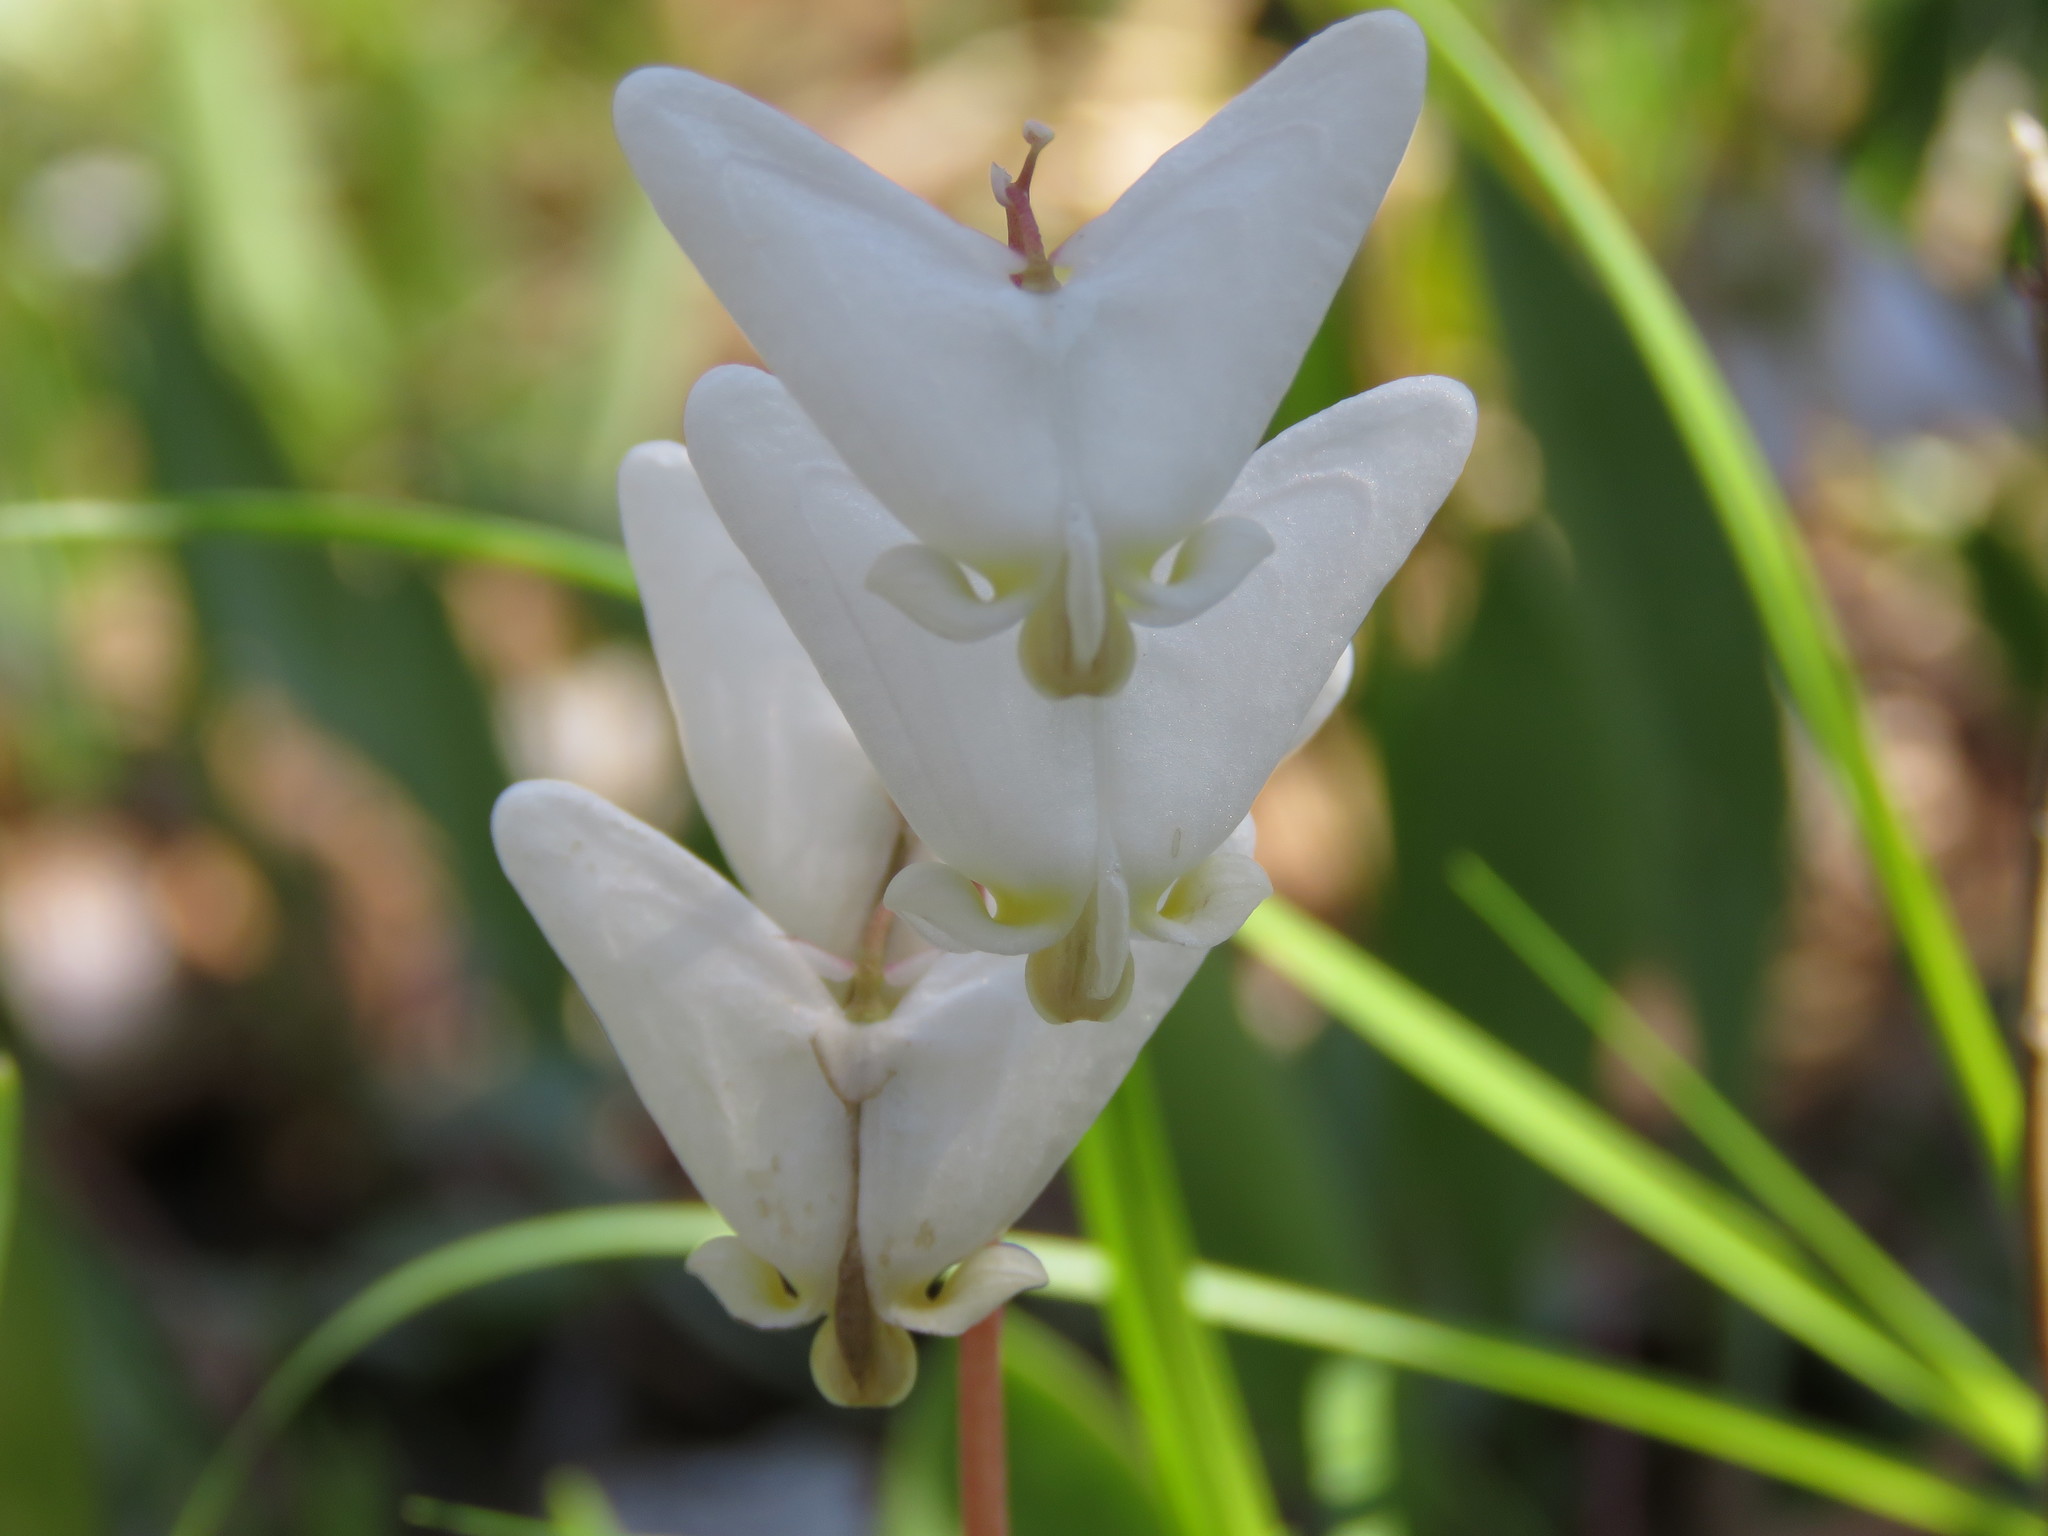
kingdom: Plantae
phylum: Tracheophyta
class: Magnoliopsida
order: Ranunculales
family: Papaveraceae
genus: Dicentra
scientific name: Dicentra cucullaria
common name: Dutchman's breeches
